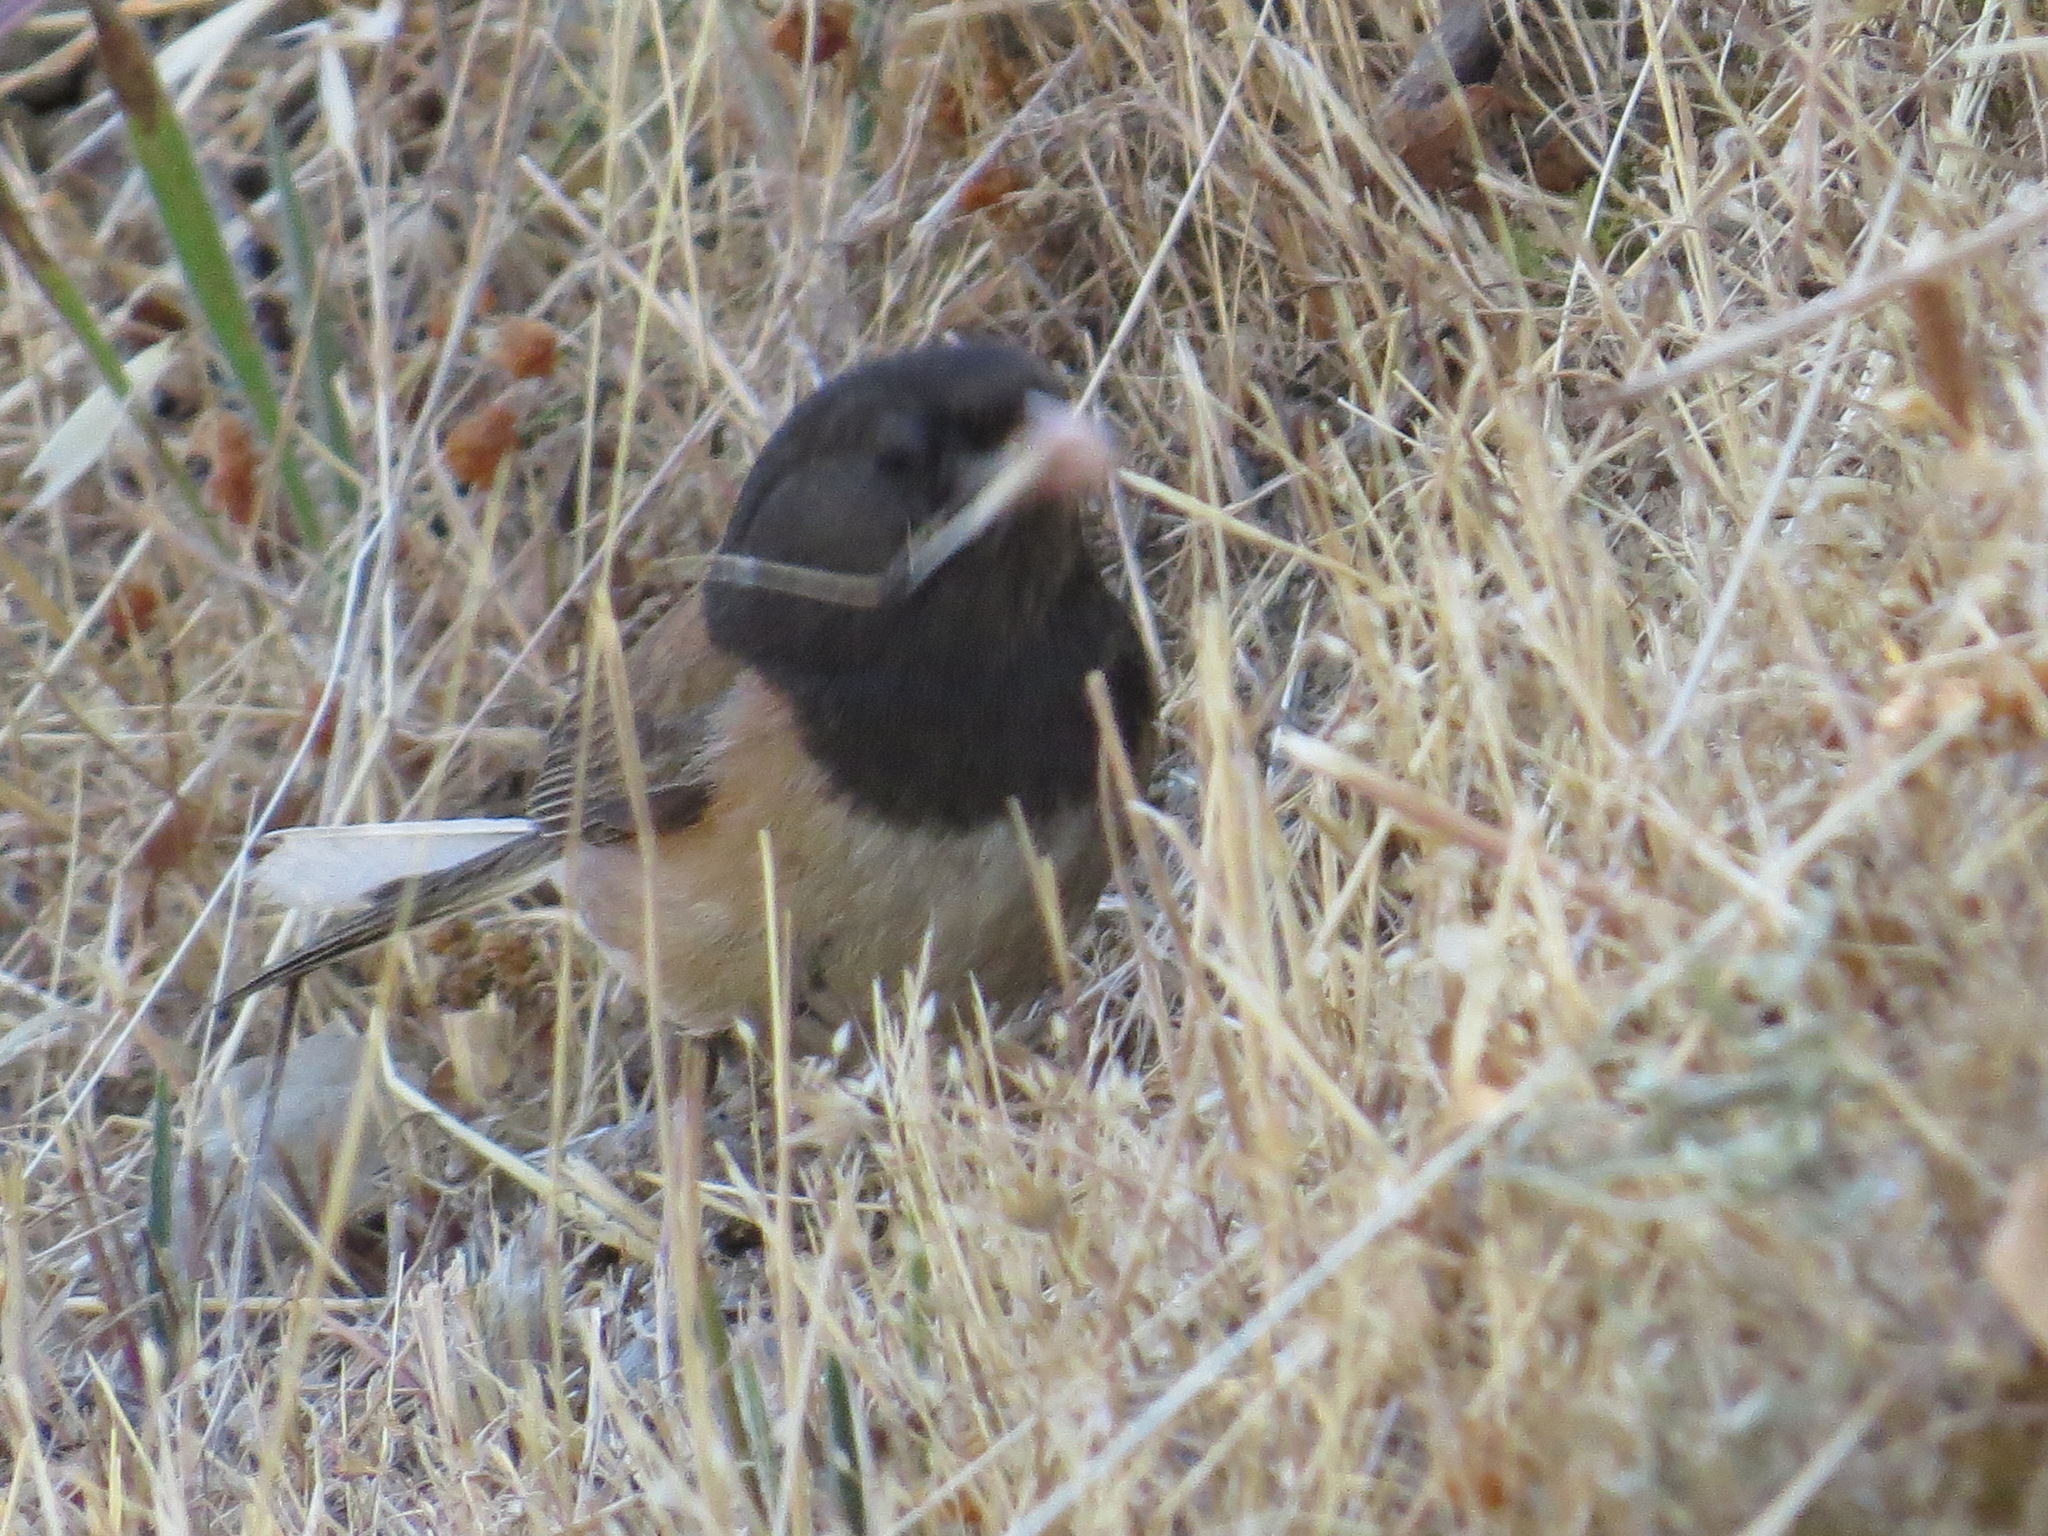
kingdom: Animalia
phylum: Chordata
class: Aves
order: Passeriformes
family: Passerellidae
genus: Junco
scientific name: Junco hyemalis
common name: Dark-eyed junco
